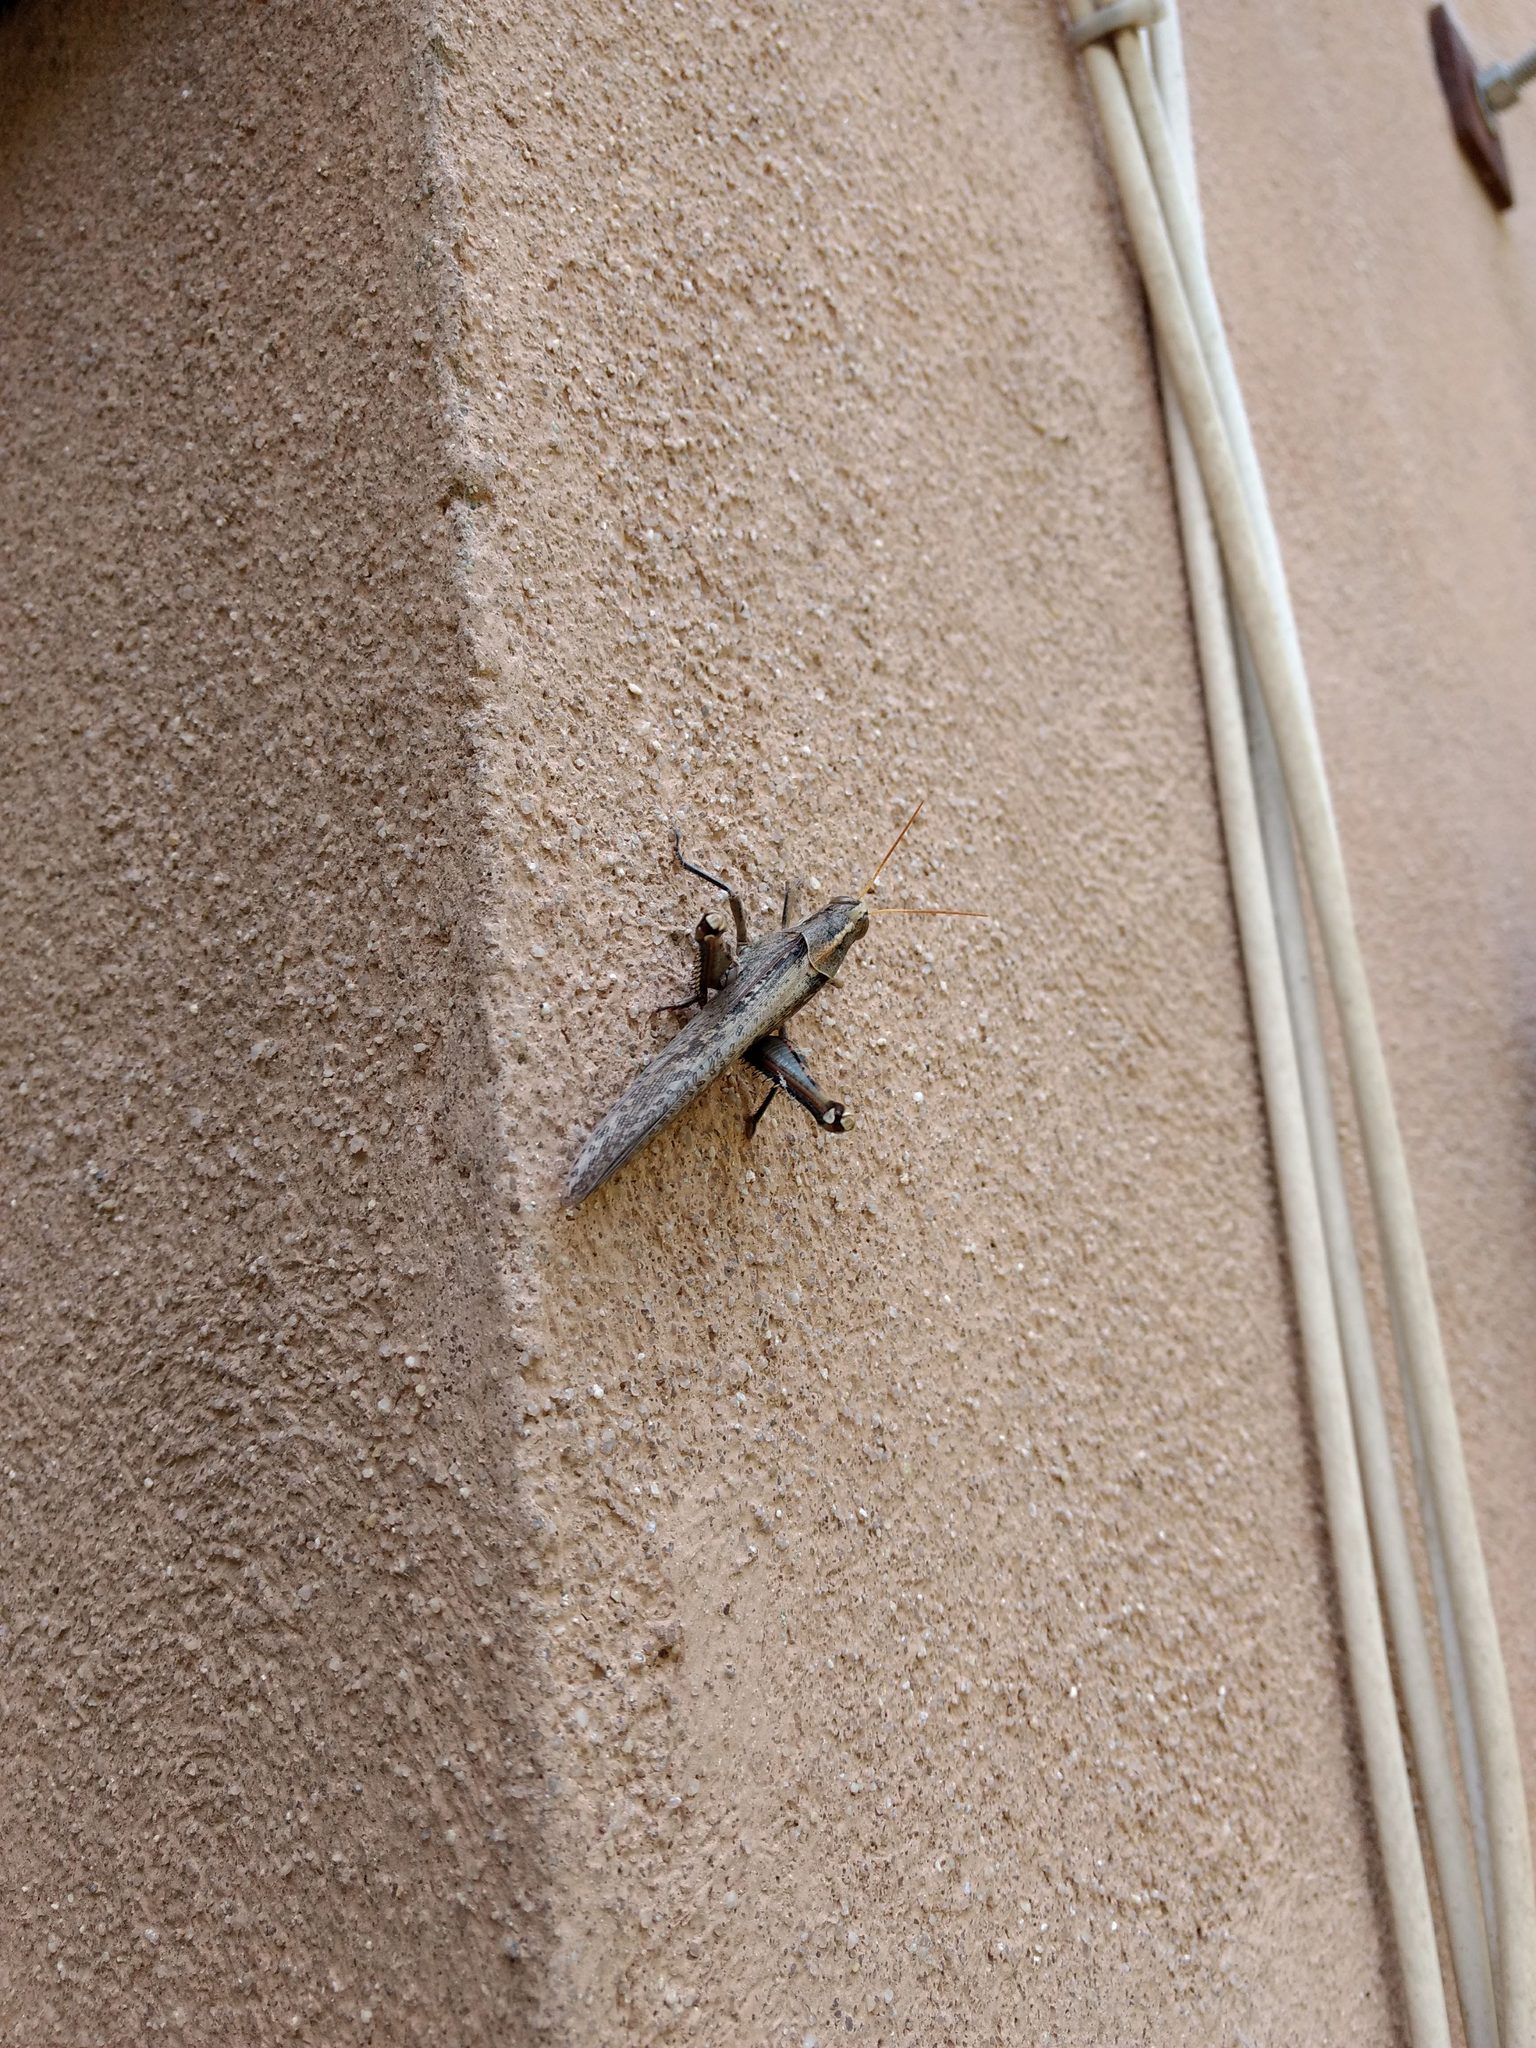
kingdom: Animalia
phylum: Arthropoda
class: Insecta
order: Orthoptera
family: Acrididae
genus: Schistocerca
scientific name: Schistocerca nitens
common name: Vagrant grasshopper
